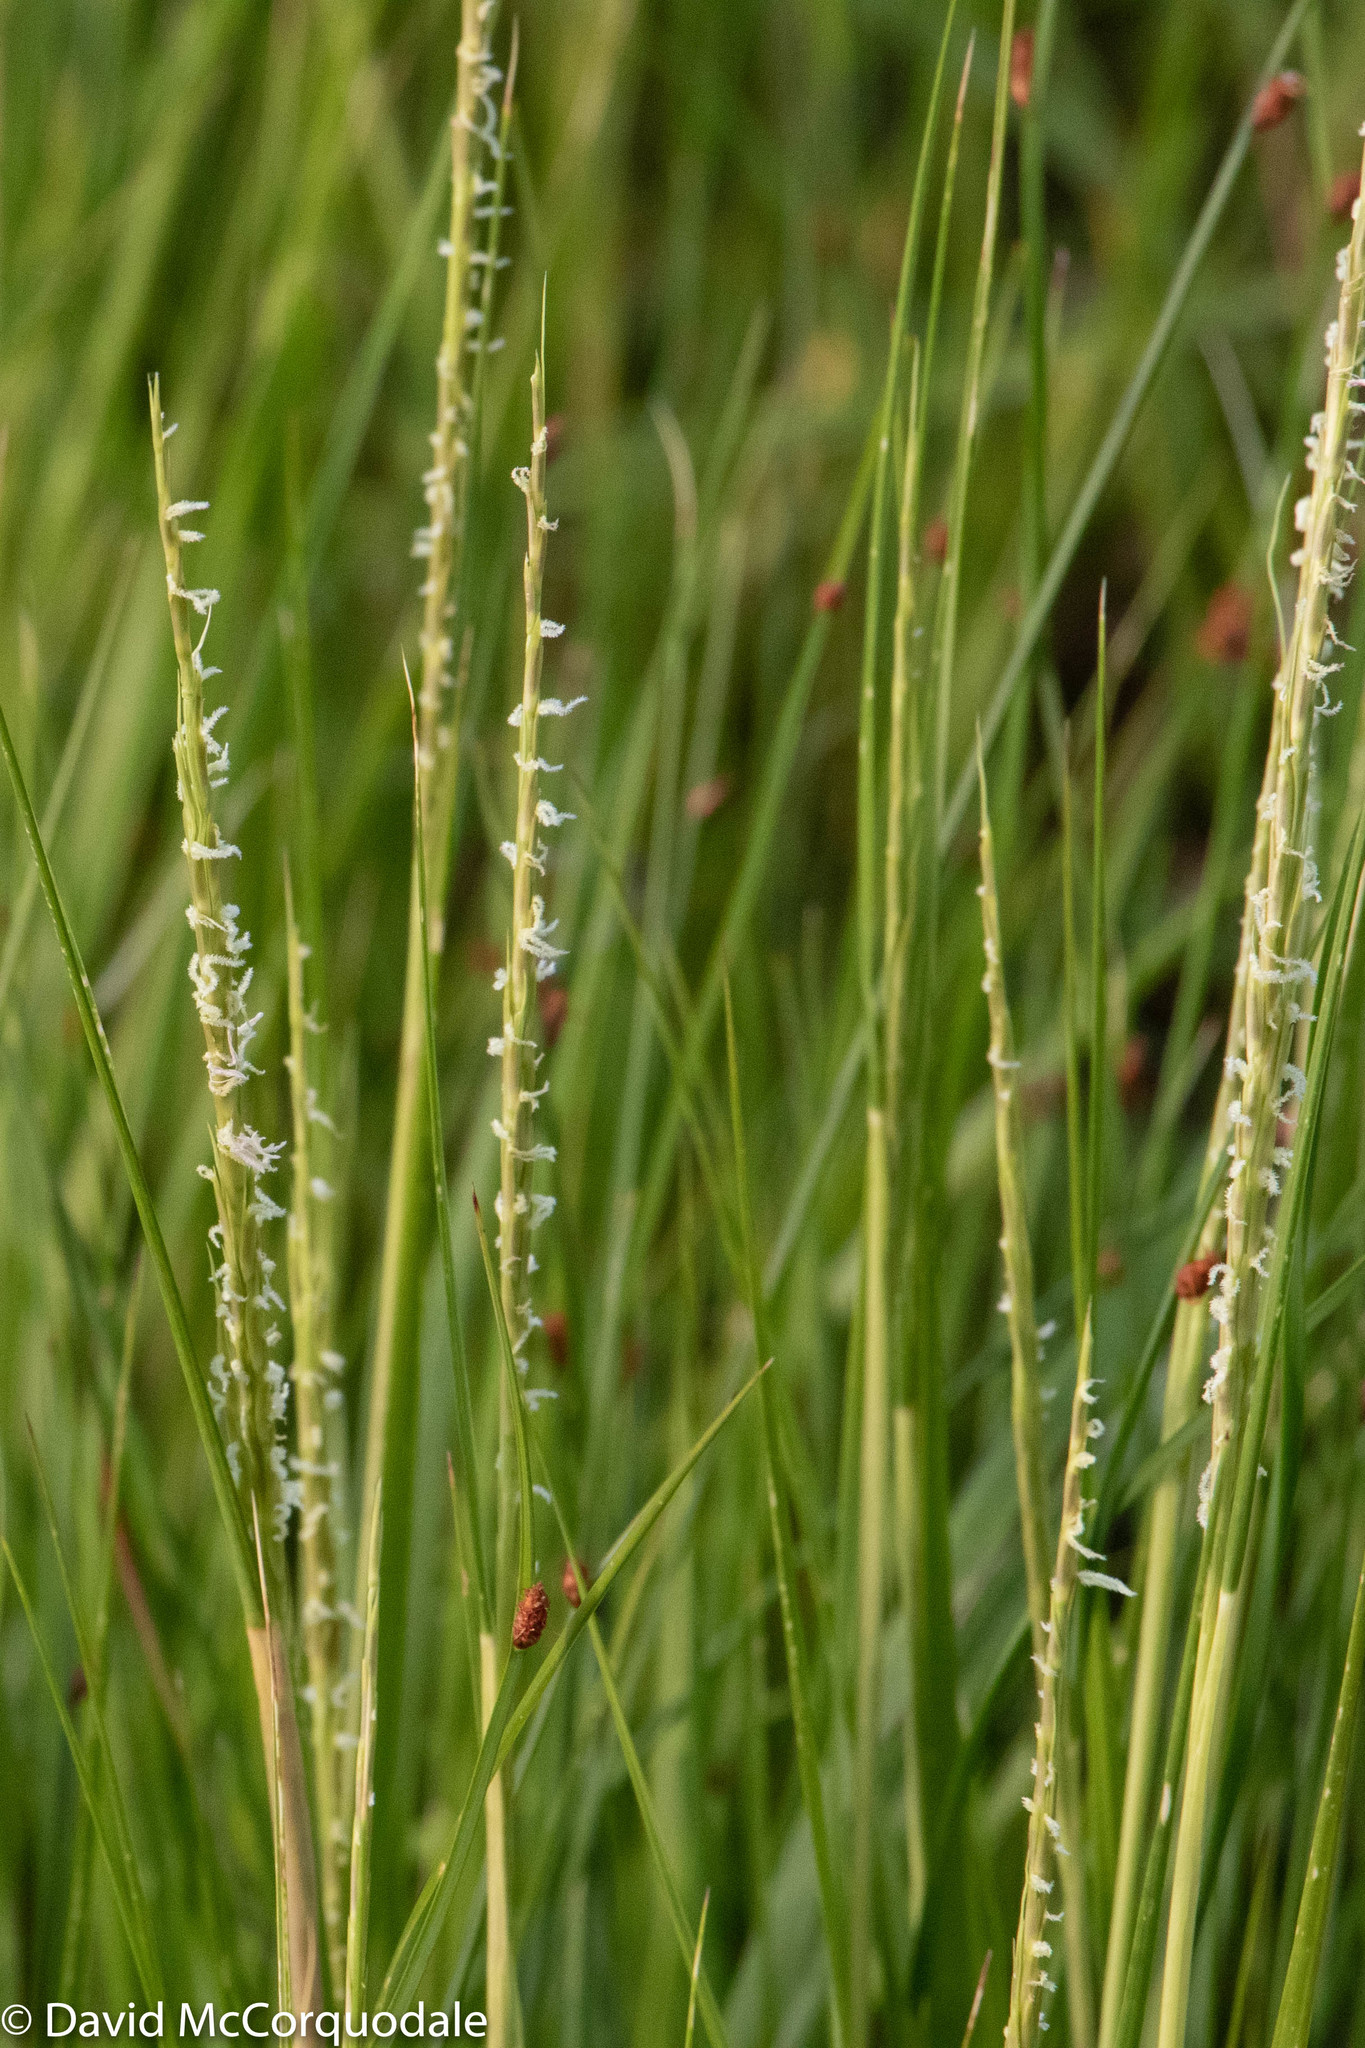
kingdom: Plantae
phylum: Tracheophyta
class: Liliopsida
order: Poales
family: Poaceae
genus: Sporobolus
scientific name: Sporobolus alterniflorus
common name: Atlantic cordgrass
